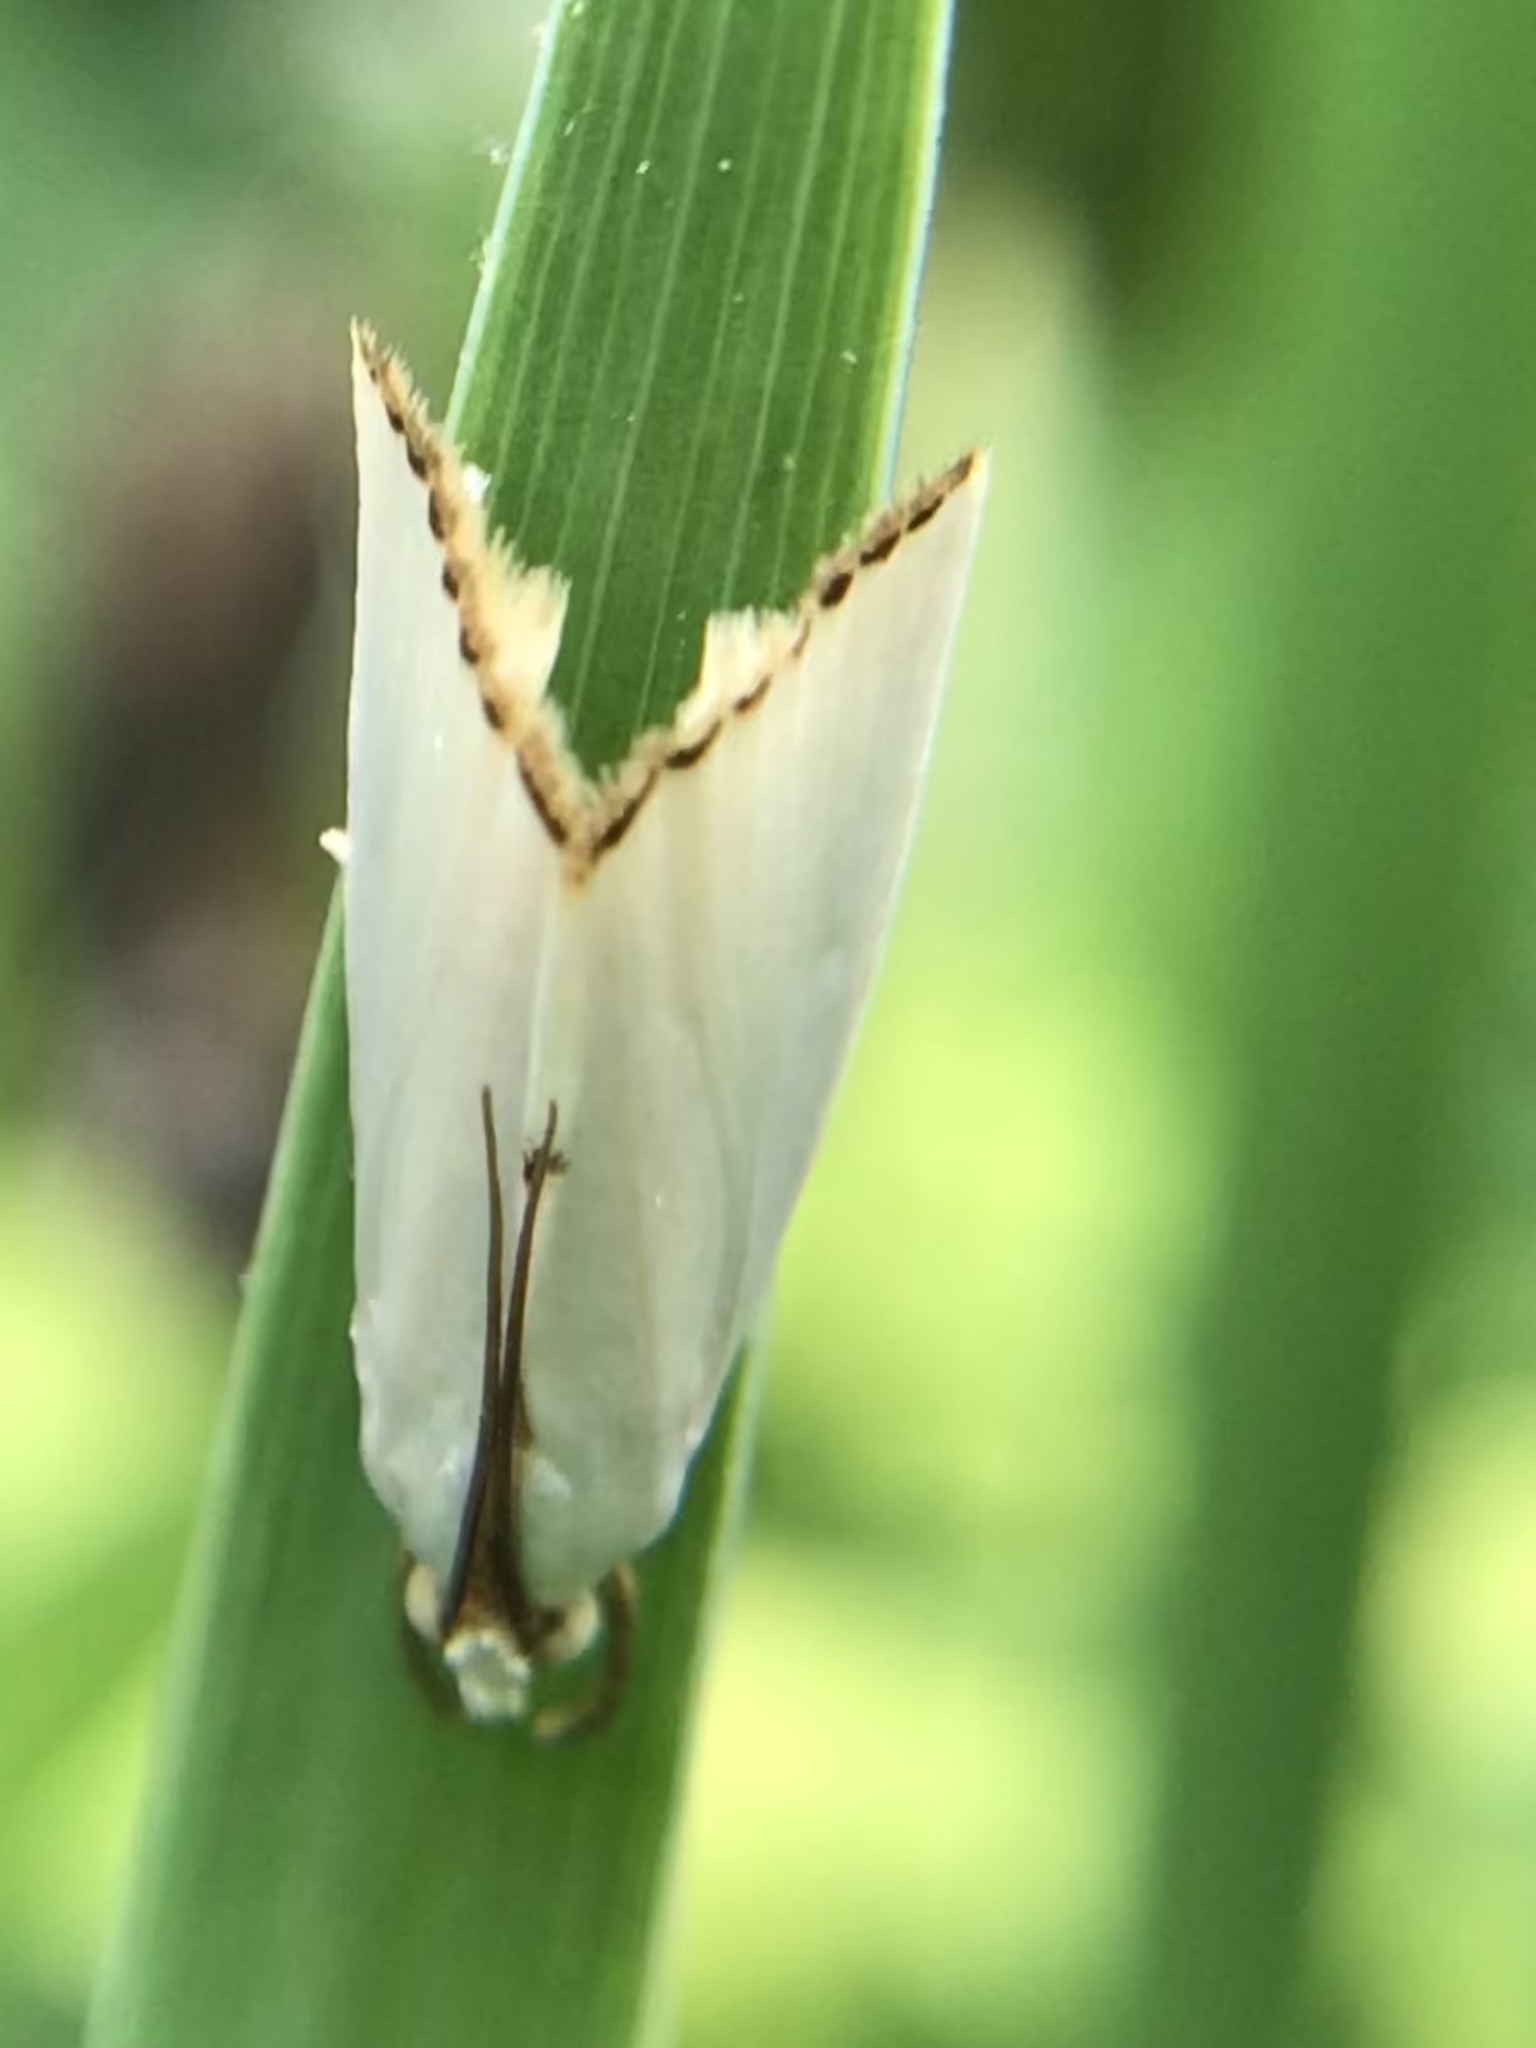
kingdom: Animalia
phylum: Arthropoda
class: Insecta
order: Lepidoptera
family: Crambidae
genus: Argyria
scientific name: Argyria nivalis
